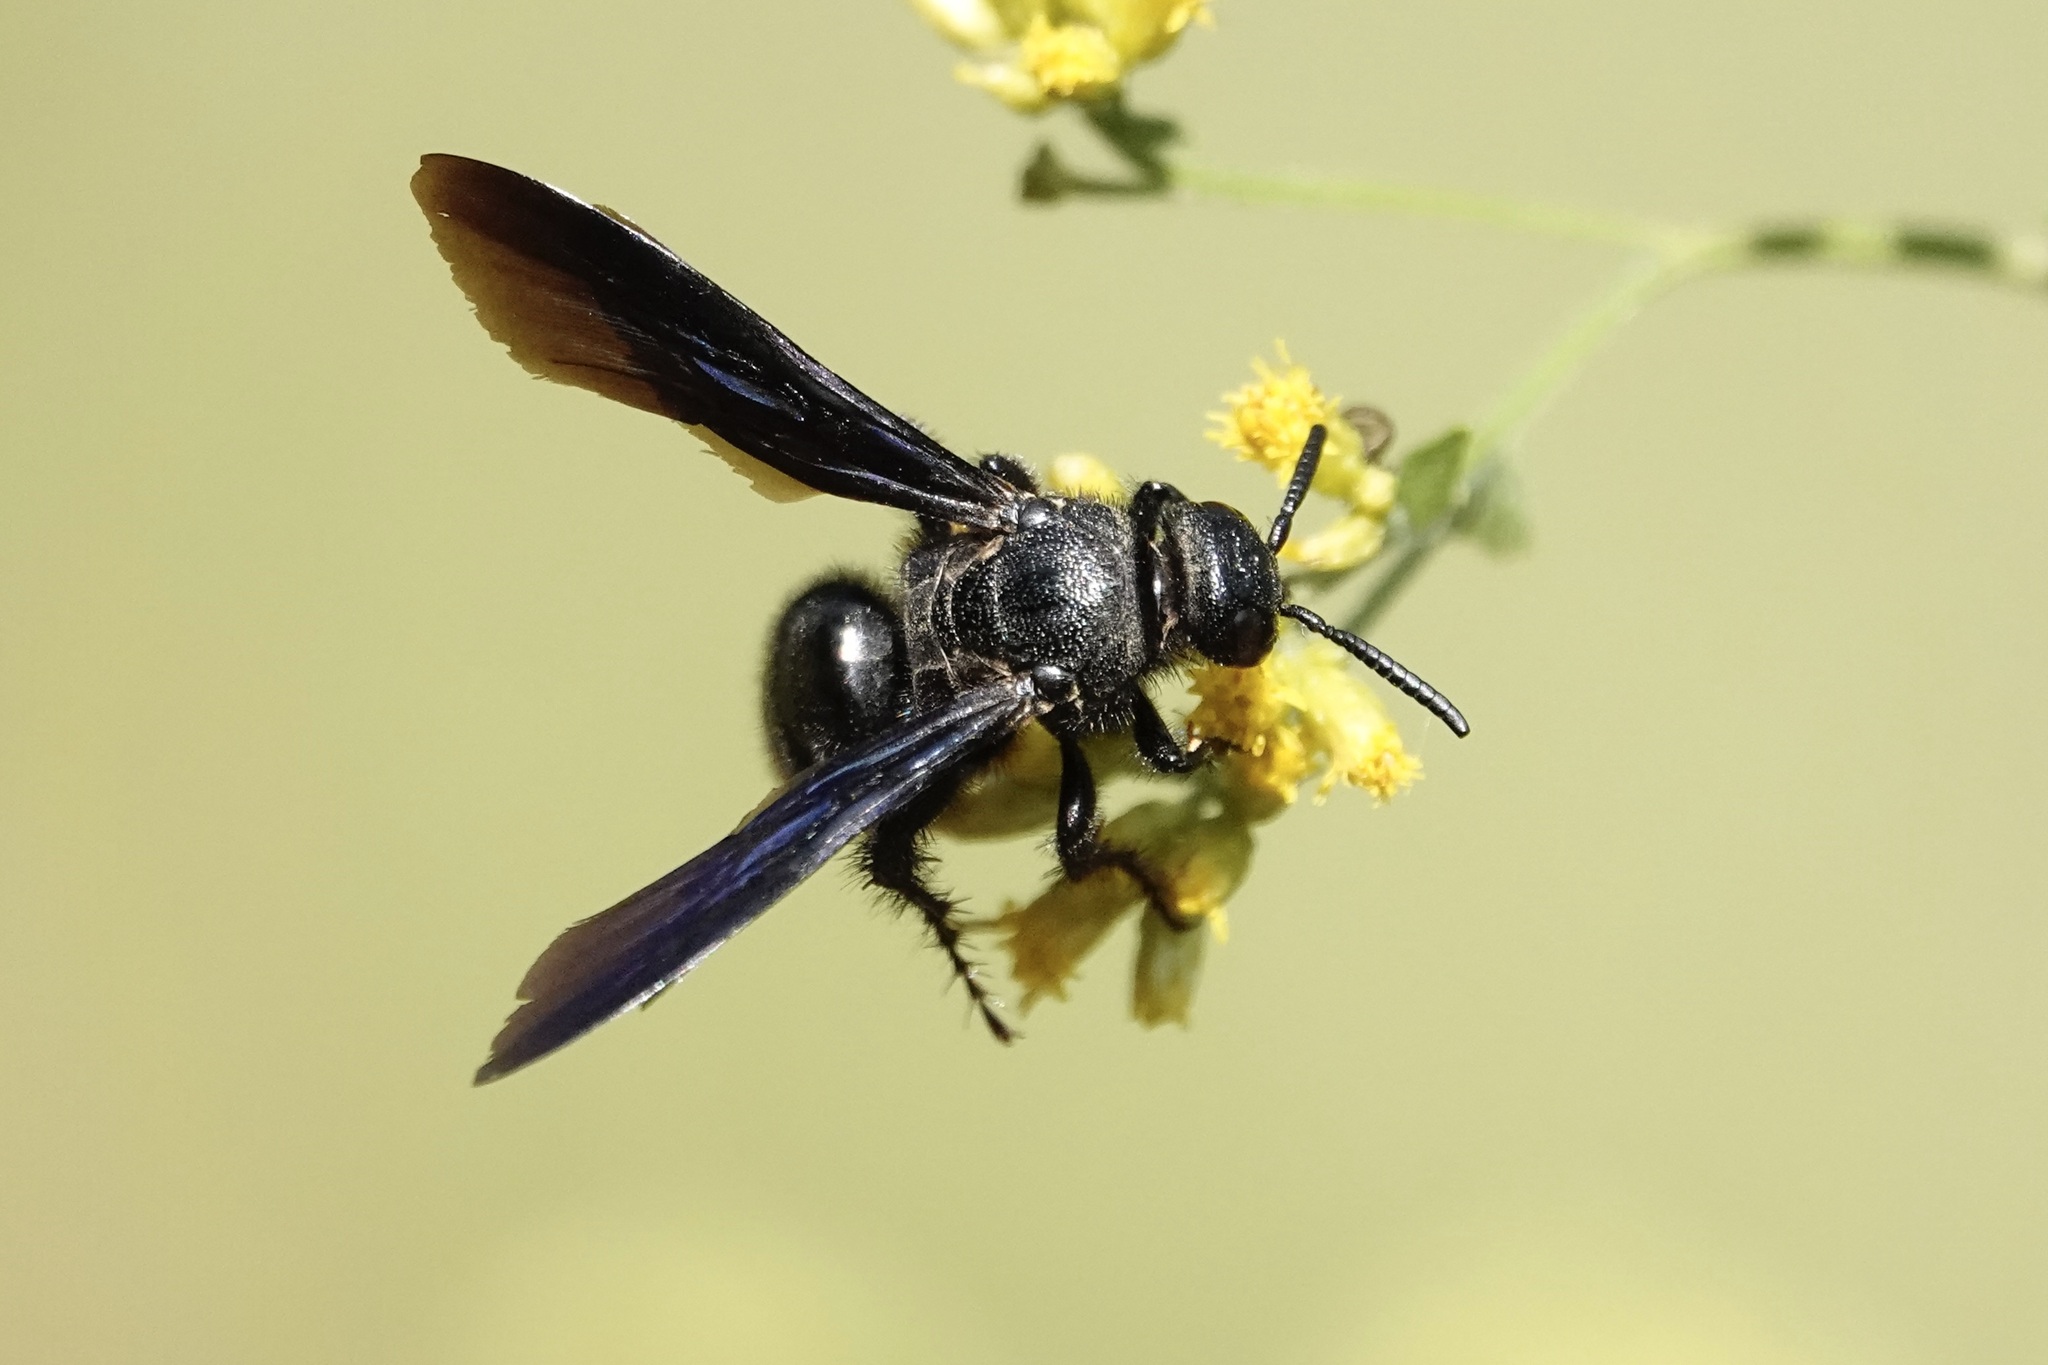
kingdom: Animalia
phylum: Arthropoda
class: Insecta
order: Hymenoptera
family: Scoliidae
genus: Scolia
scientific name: Scolia dubia
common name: Blue-winged scoliid wasp
